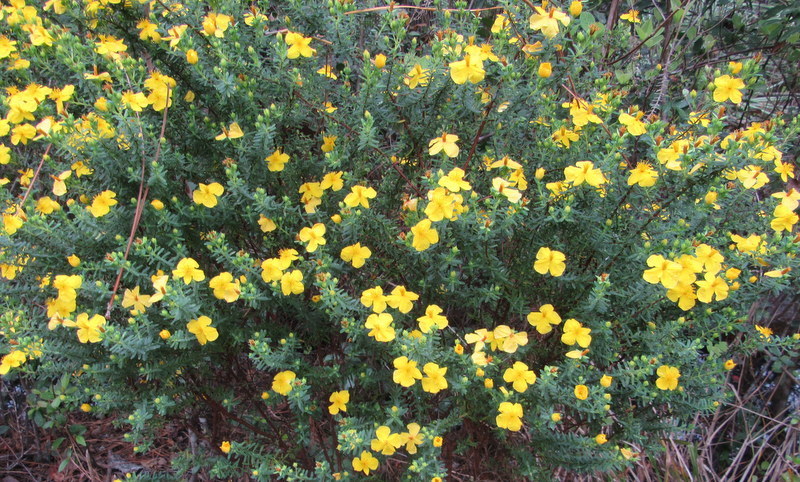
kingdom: Plantae
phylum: Tracheophyta
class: Magnoliopsida
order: Malpighiales
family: Hypericaceae
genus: Hypericum
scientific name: Hypericum microsepalum
